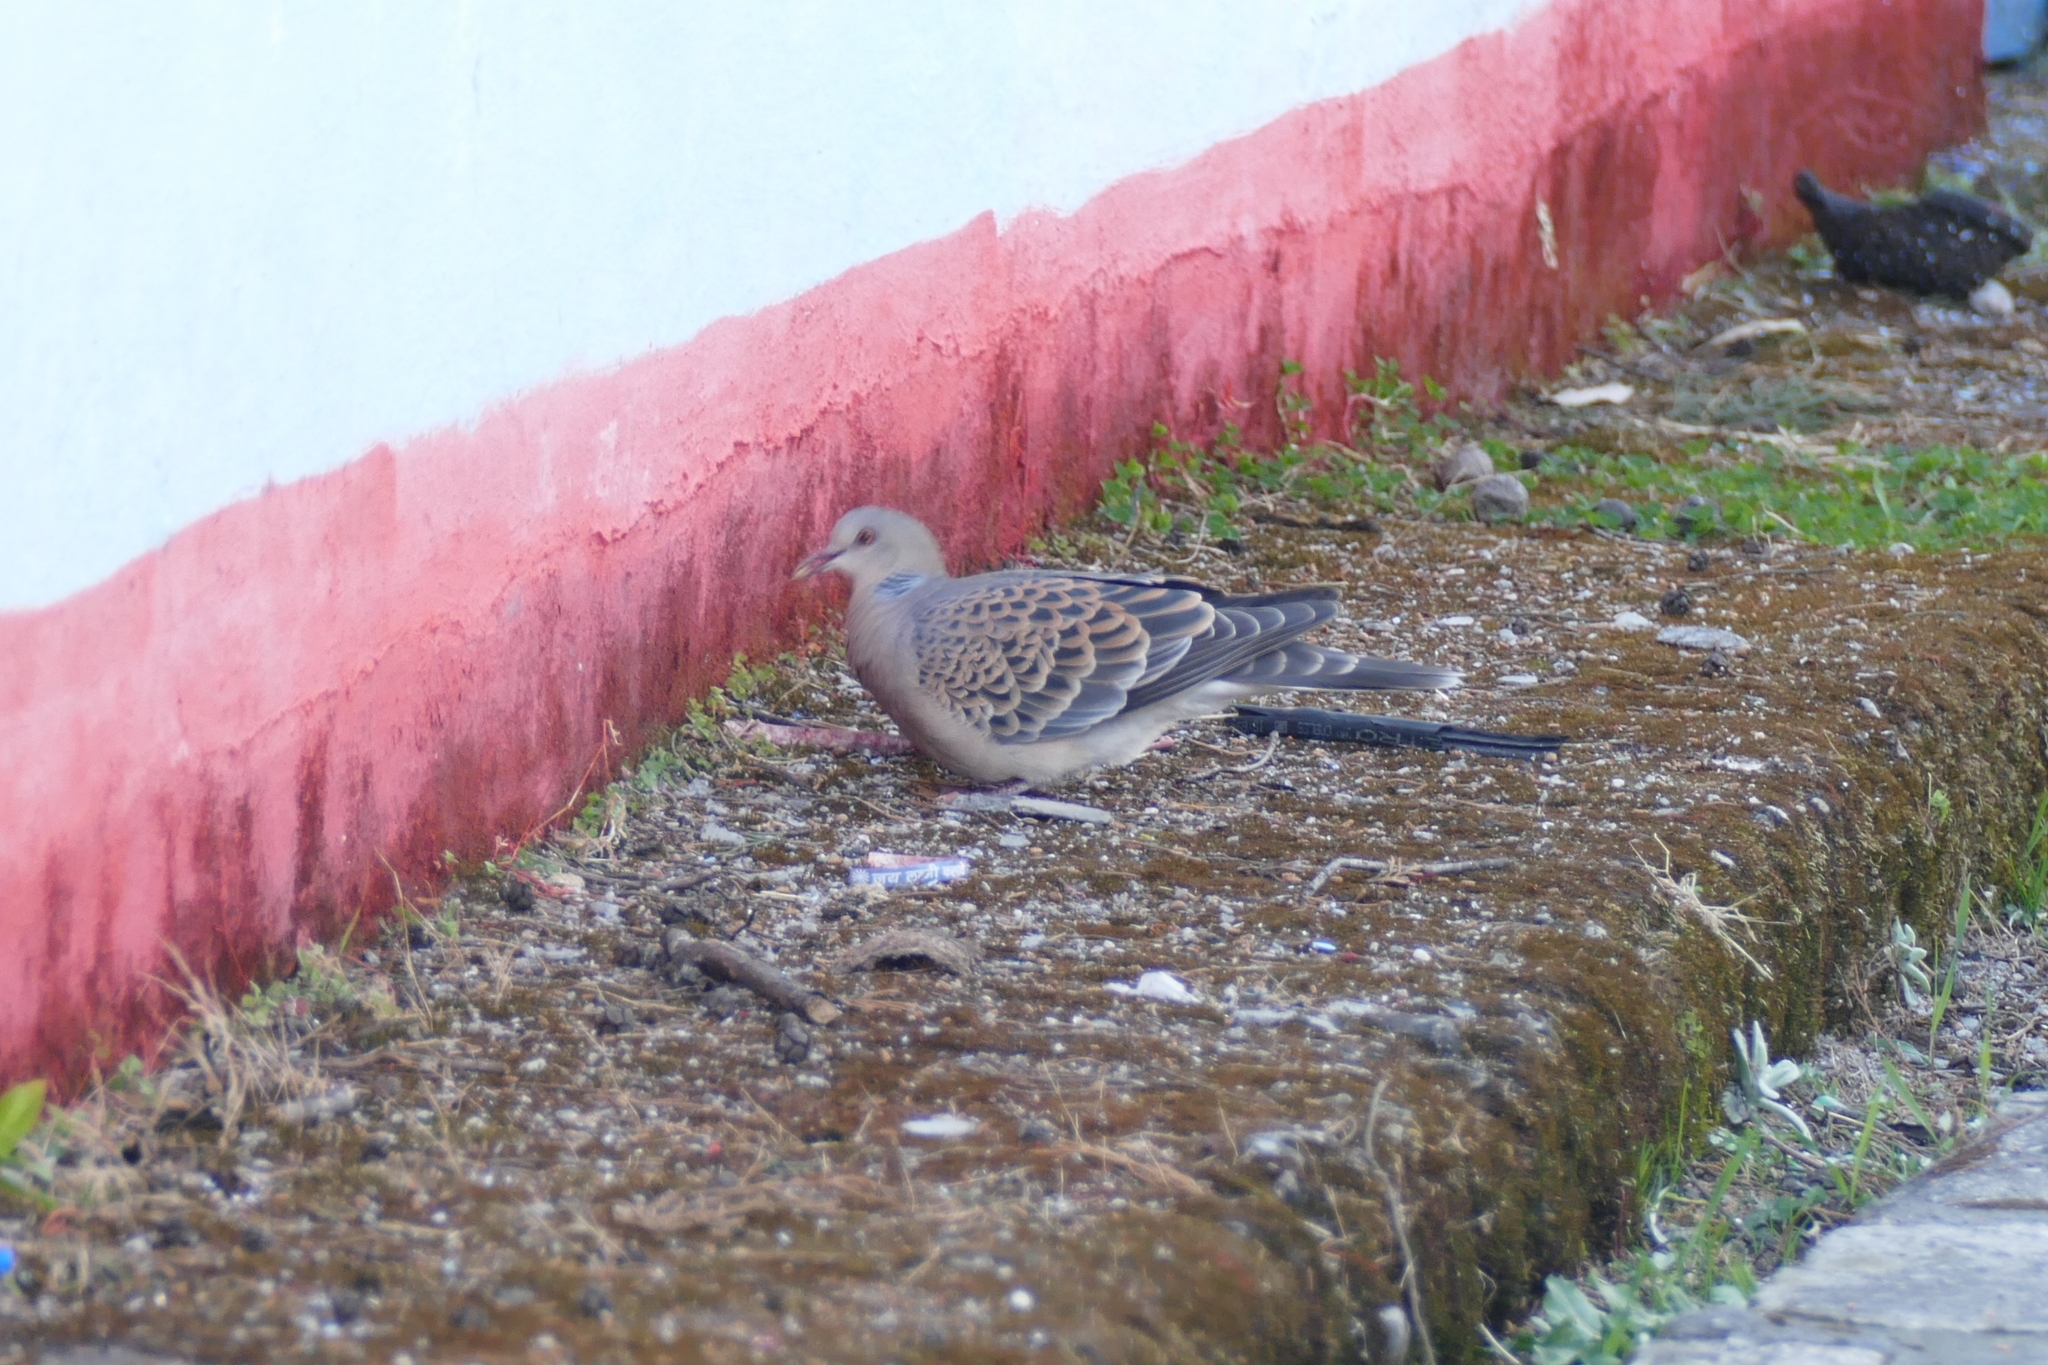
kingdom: Animalia
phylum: Chordata
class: Aves
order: Columbiformes
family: Columbidae
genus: Streptopelia
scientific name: Streptopelia orientalis
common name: Oriental turtle dove
